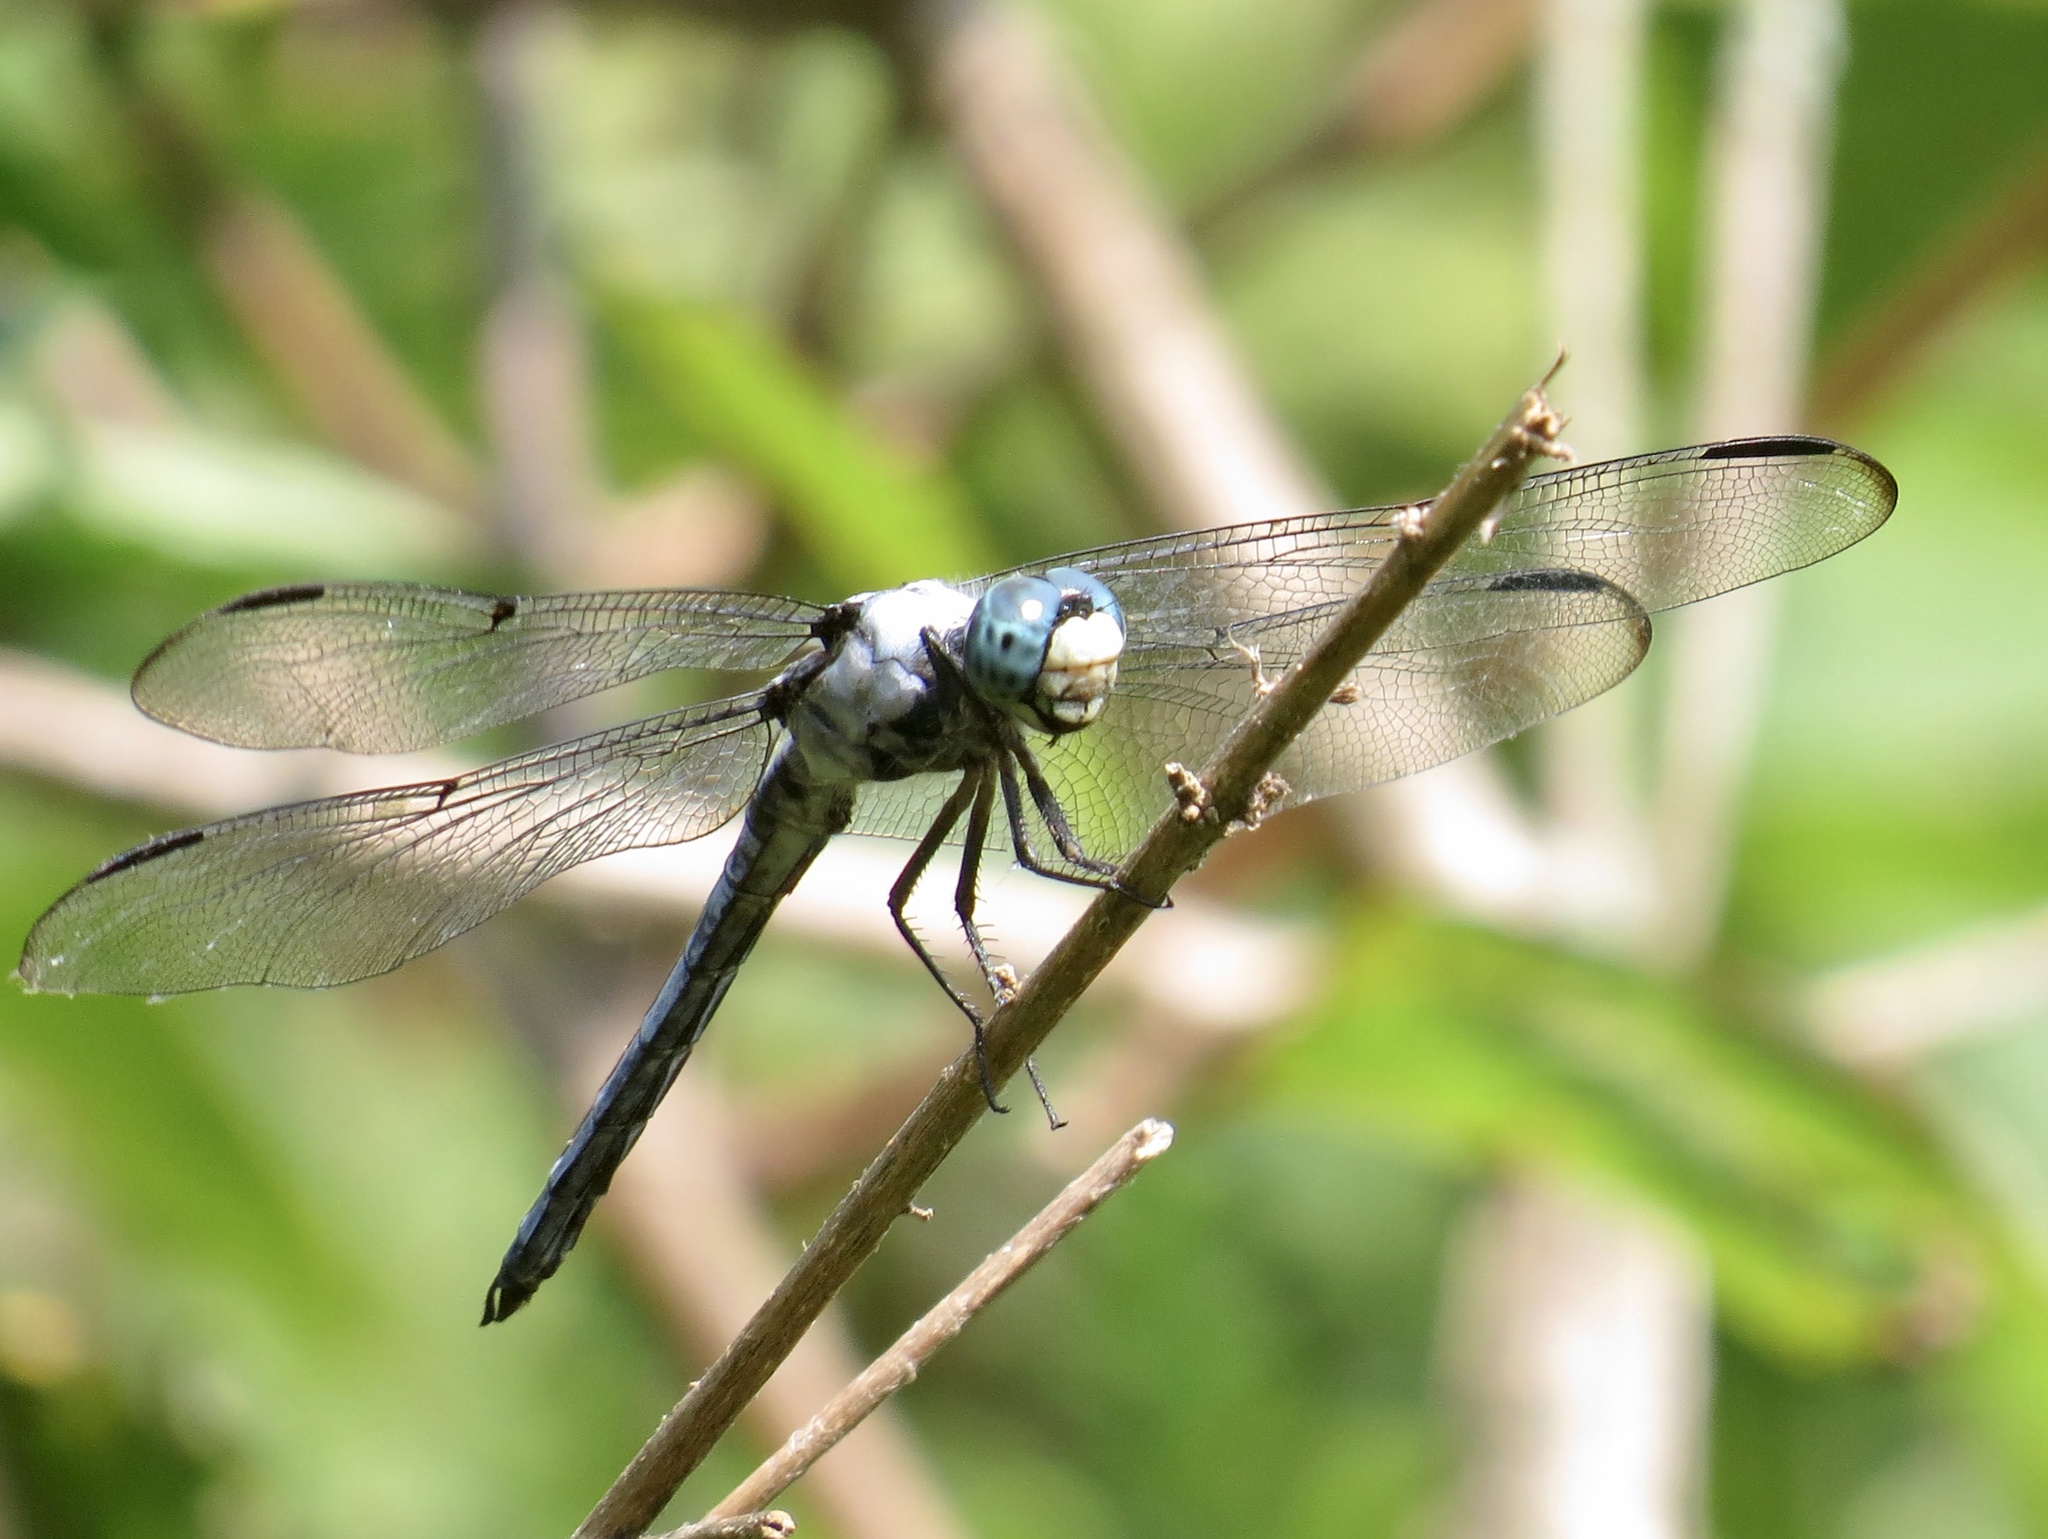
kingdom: Animalia
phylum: Arthropoda
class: Insecta
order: Odonata
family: Libellulidae
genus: Libellula
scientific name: Libellula vibrans
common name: Great blue skimmer
